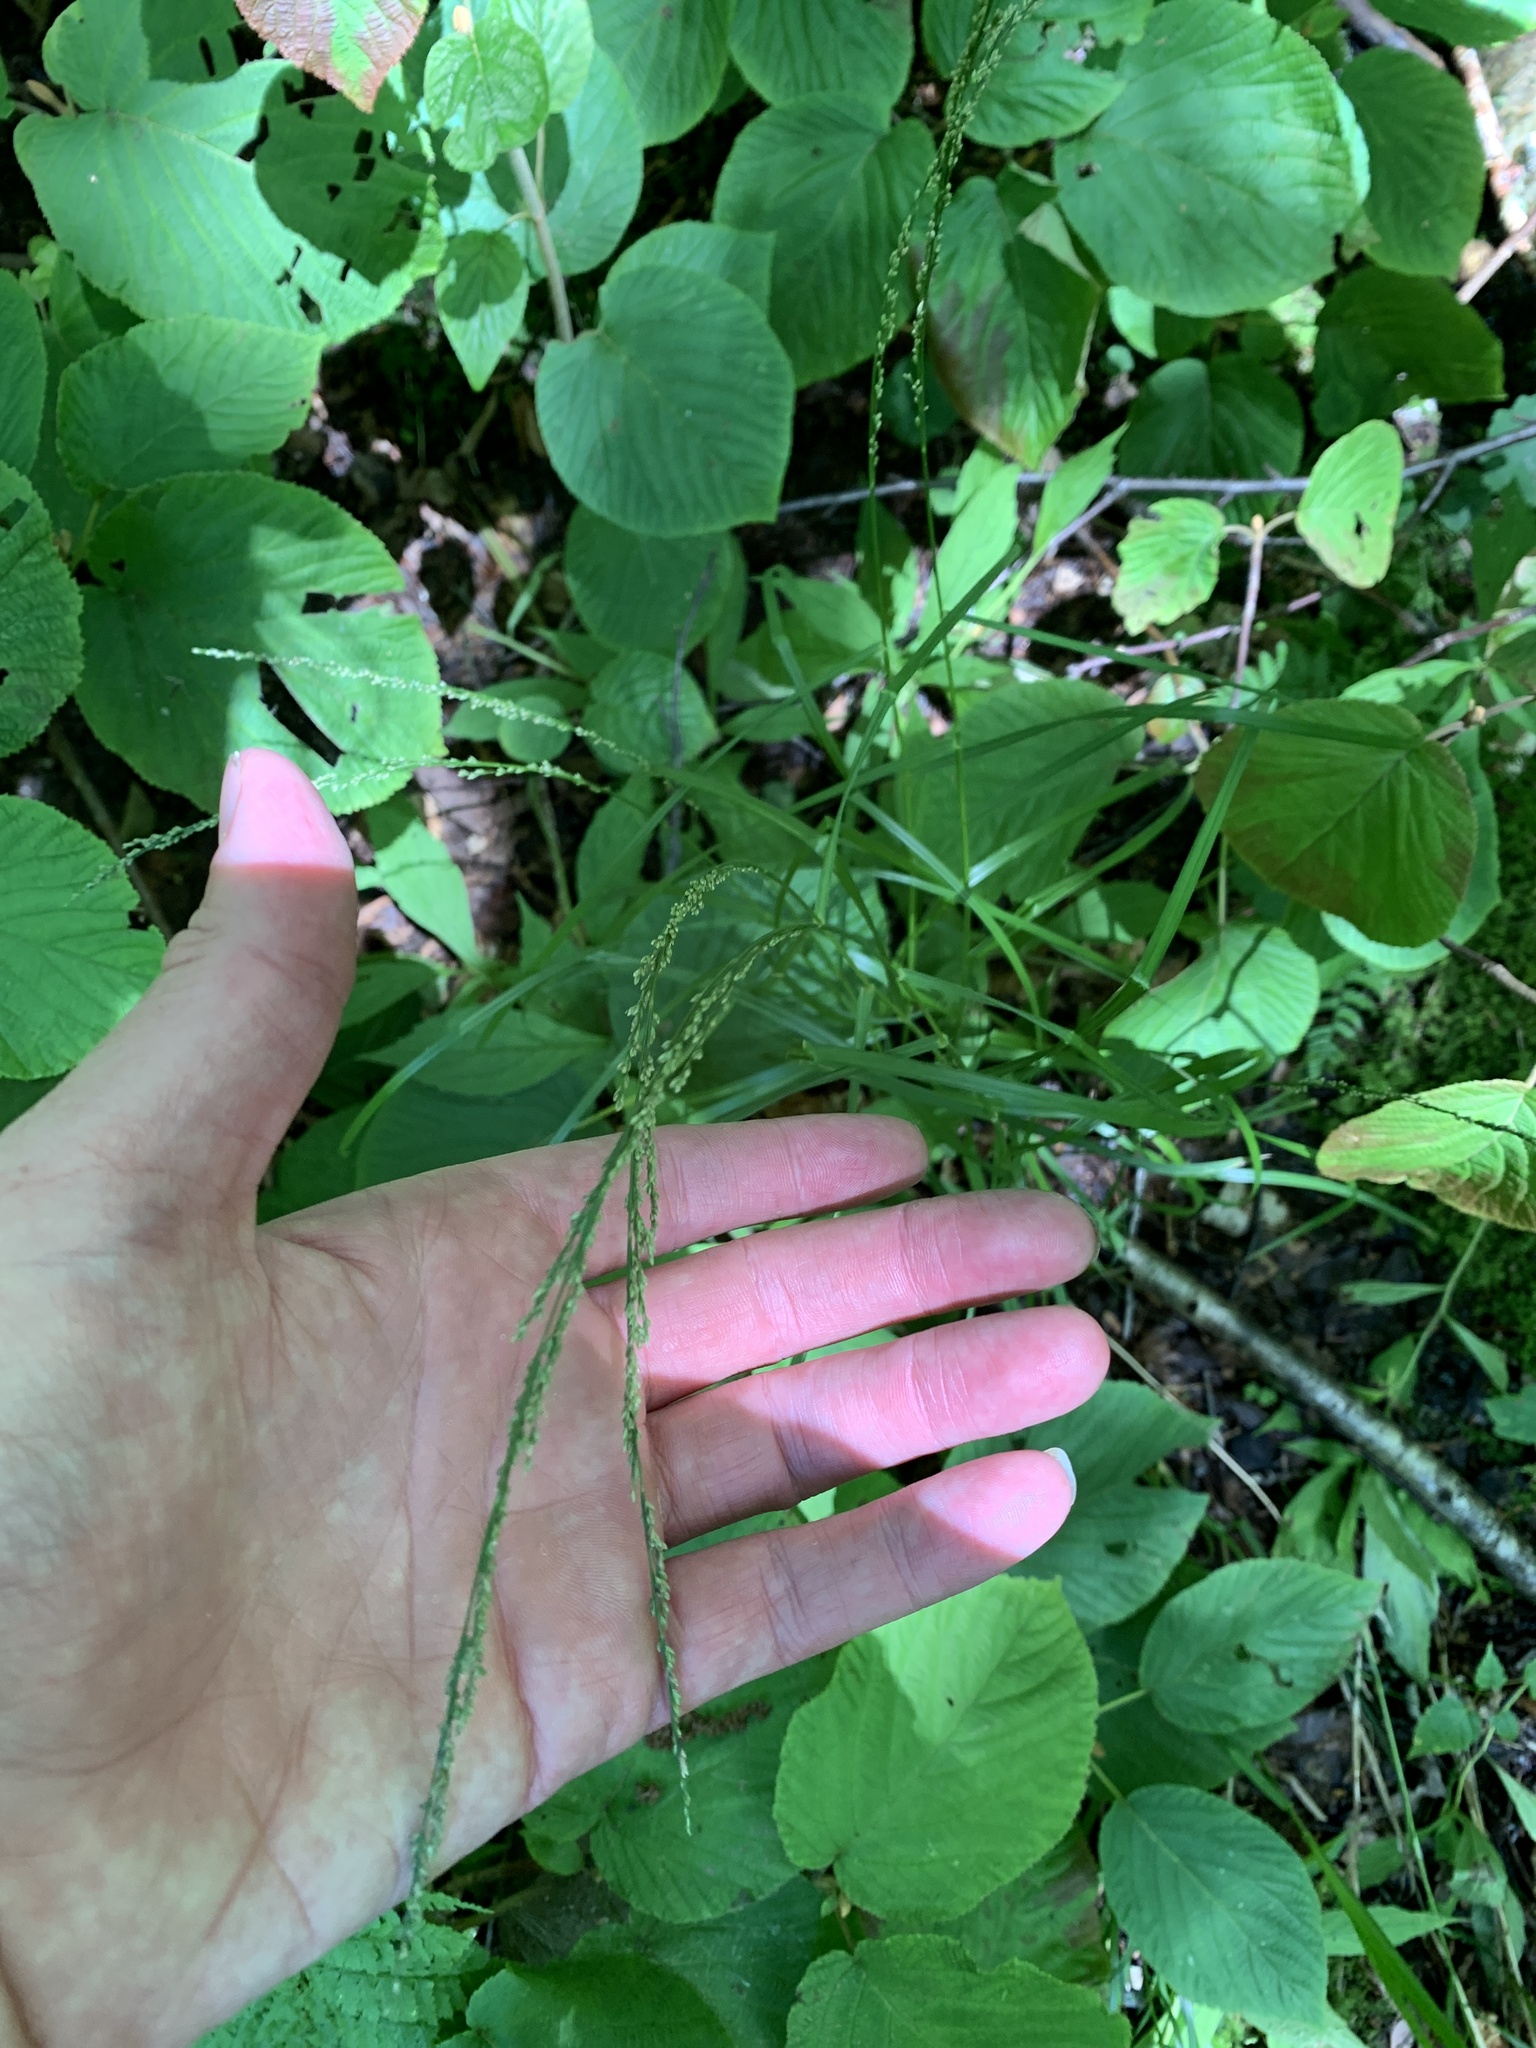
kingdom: Plantae
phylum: Tracheophyta
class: Liliopsida
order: Poales
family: Poaceae
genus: Glyceria
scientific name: Glyceria melicaria
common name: Long mannagrass
